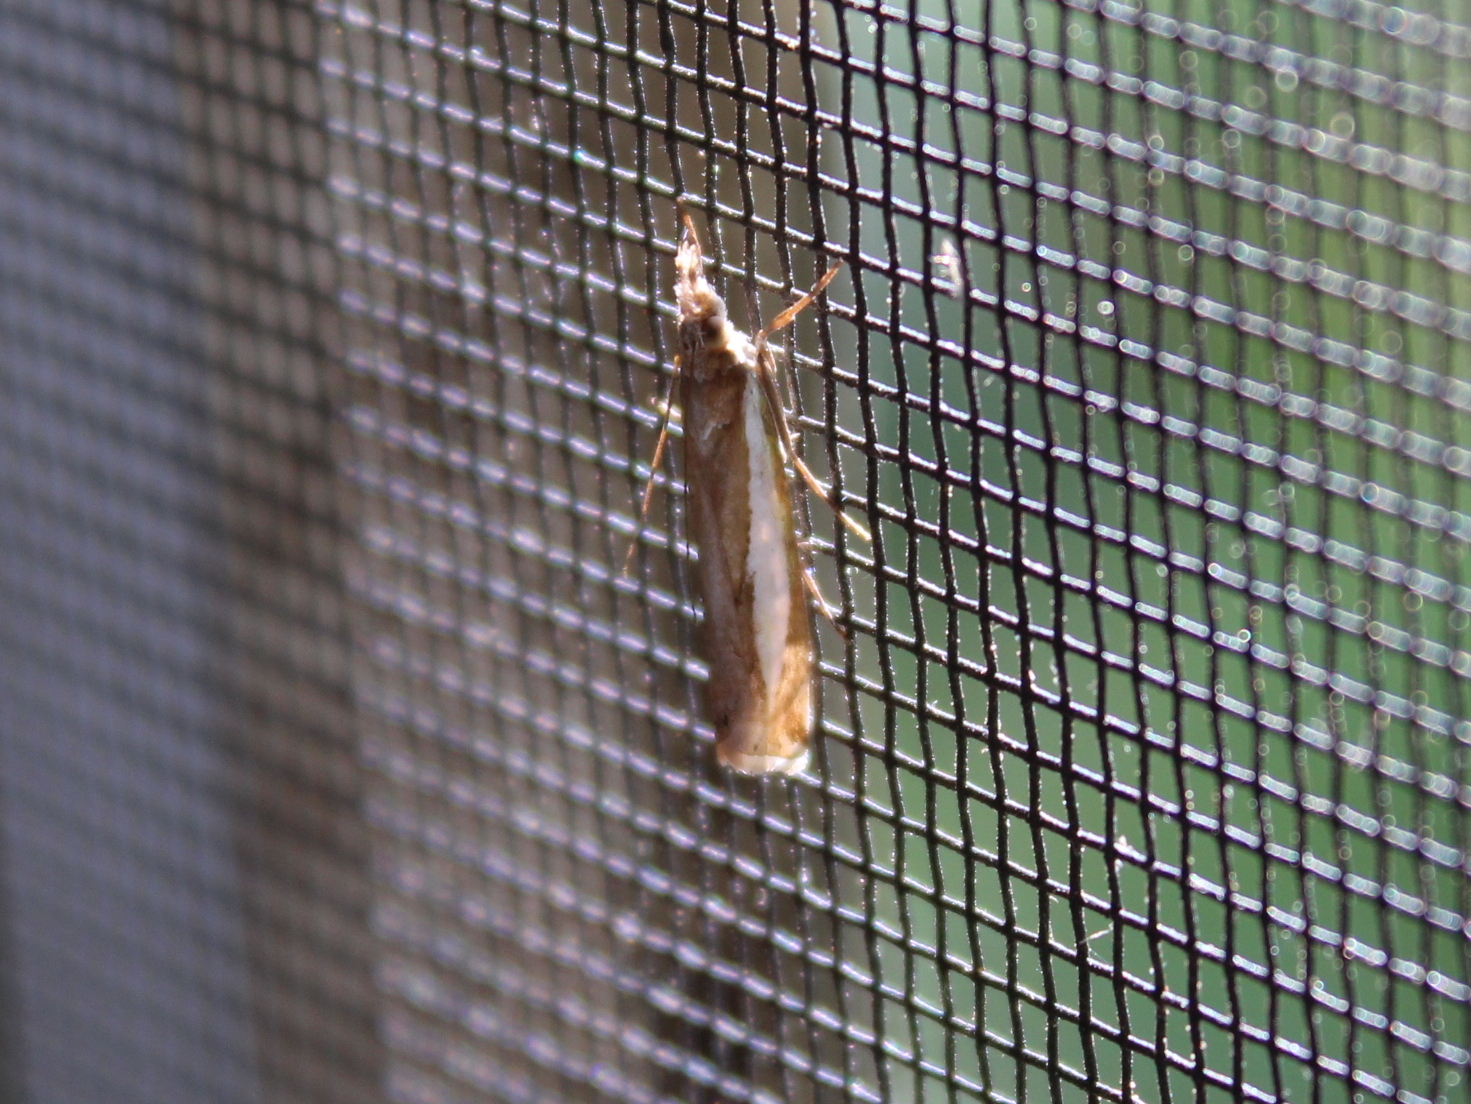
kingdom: Animalia
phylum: Arthropoda
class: Insecta
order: Lepidoptera
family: Crambidae
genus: Crambus
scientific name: Crambus praefectellus
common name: Common grass-veneer
